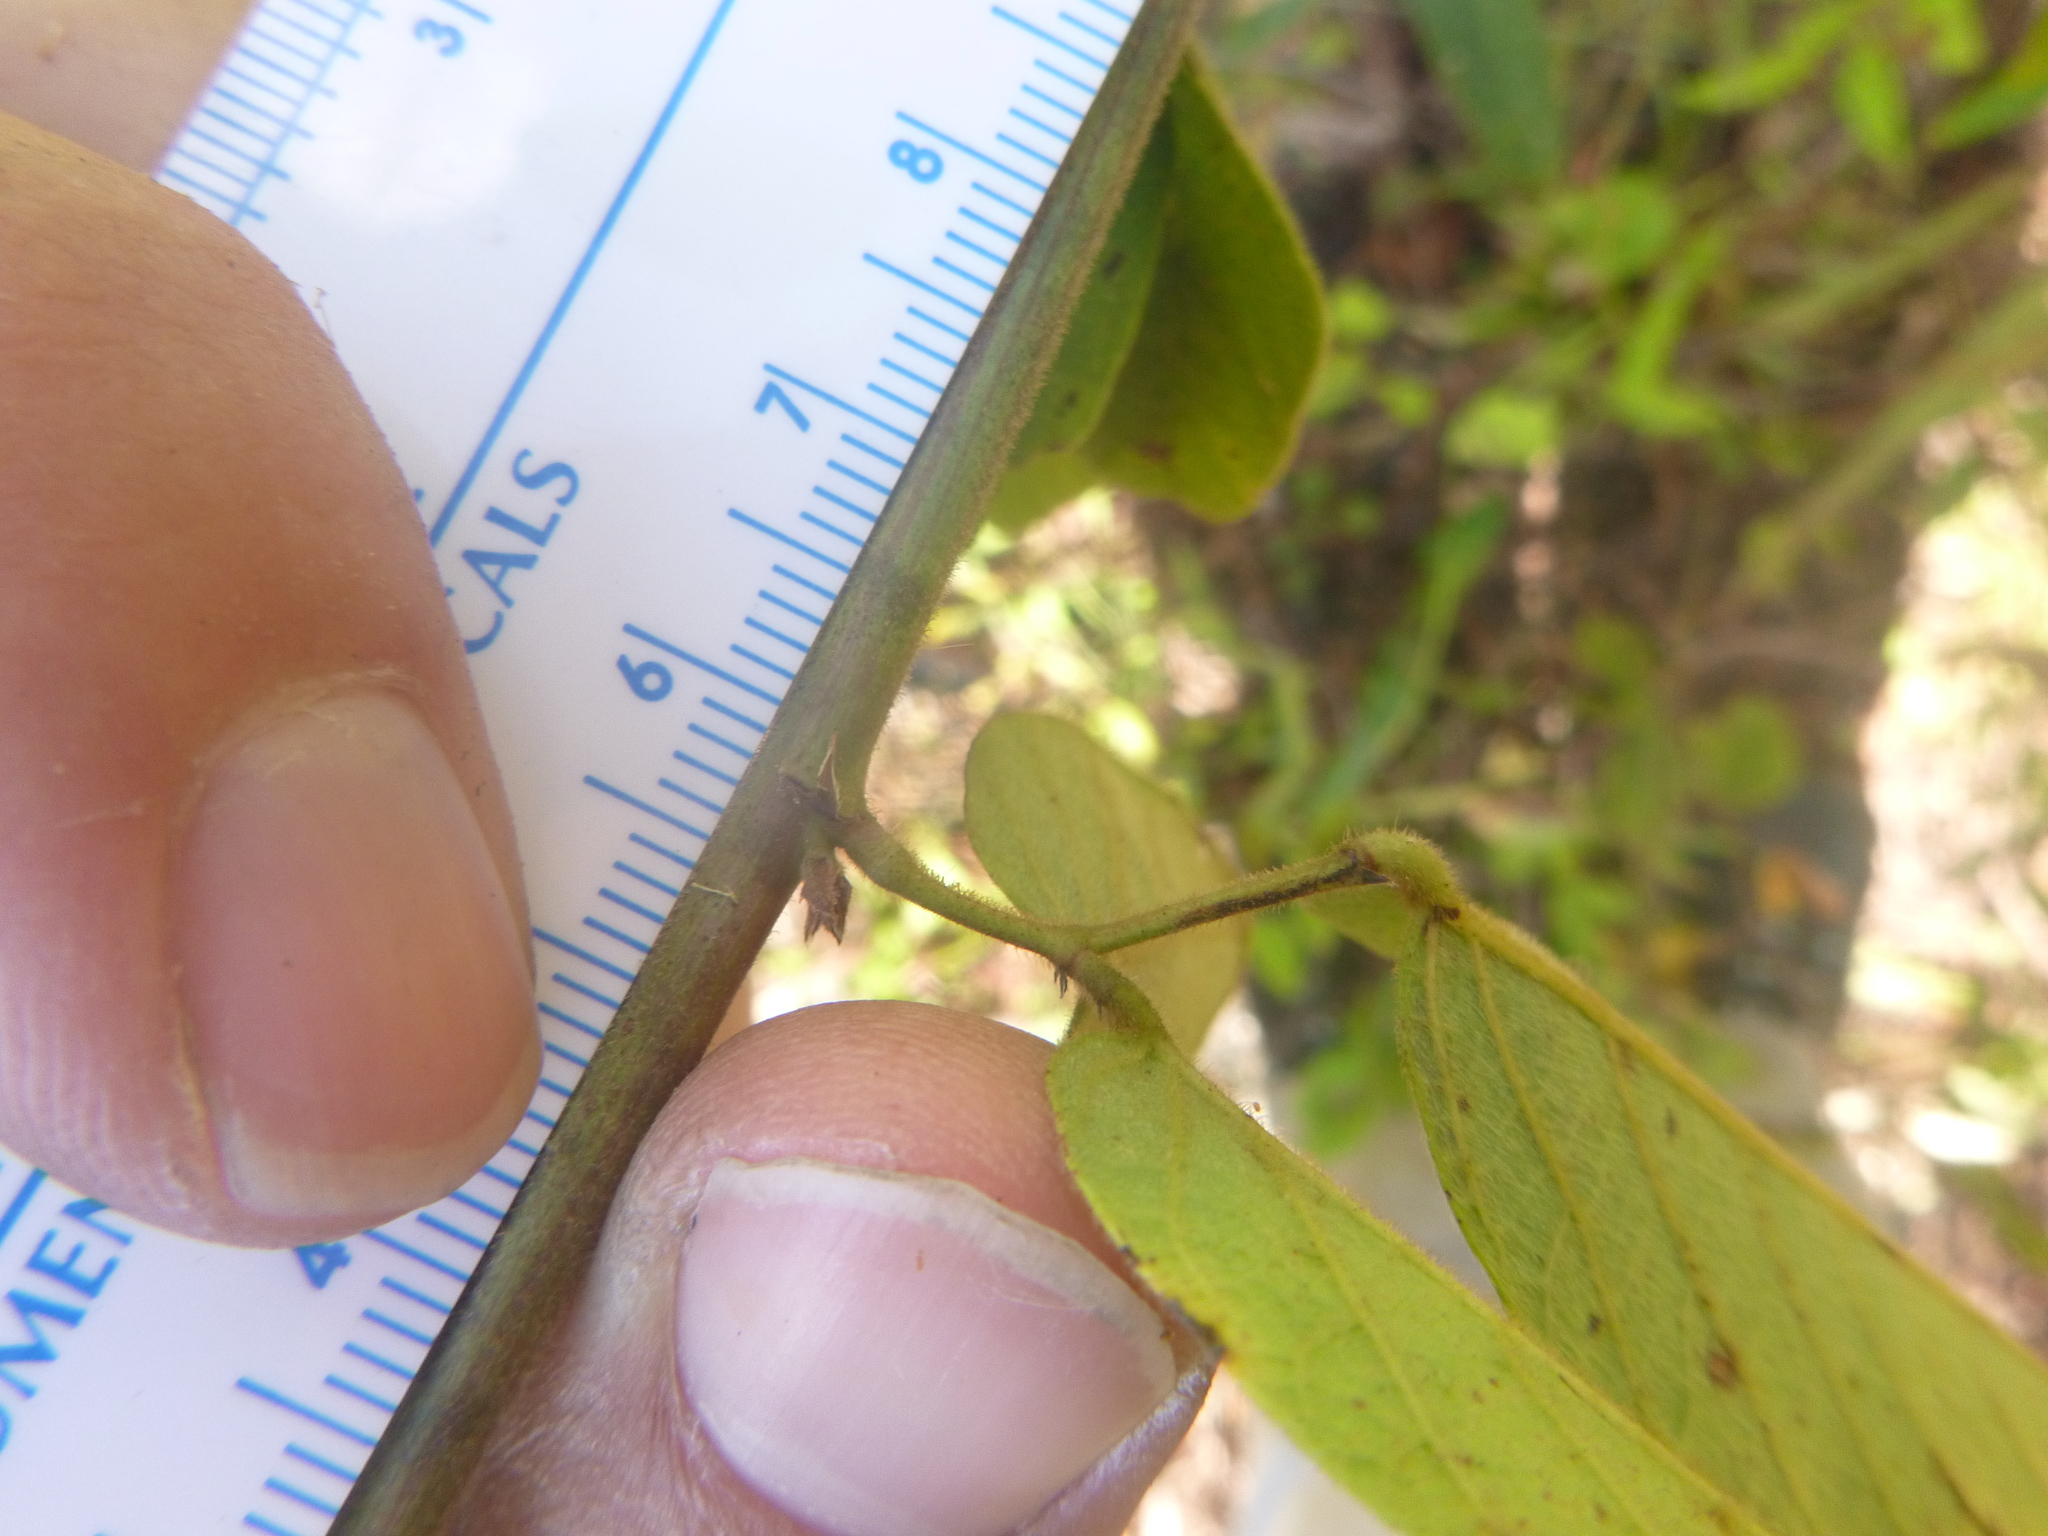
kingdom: Plantae
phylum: Tracheophyta
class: Magnoliopsida
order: Fabales
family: Fabaceae
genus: Desmodium
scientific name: Desmodium nuttallii
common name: Nuttall's tick trefoil
